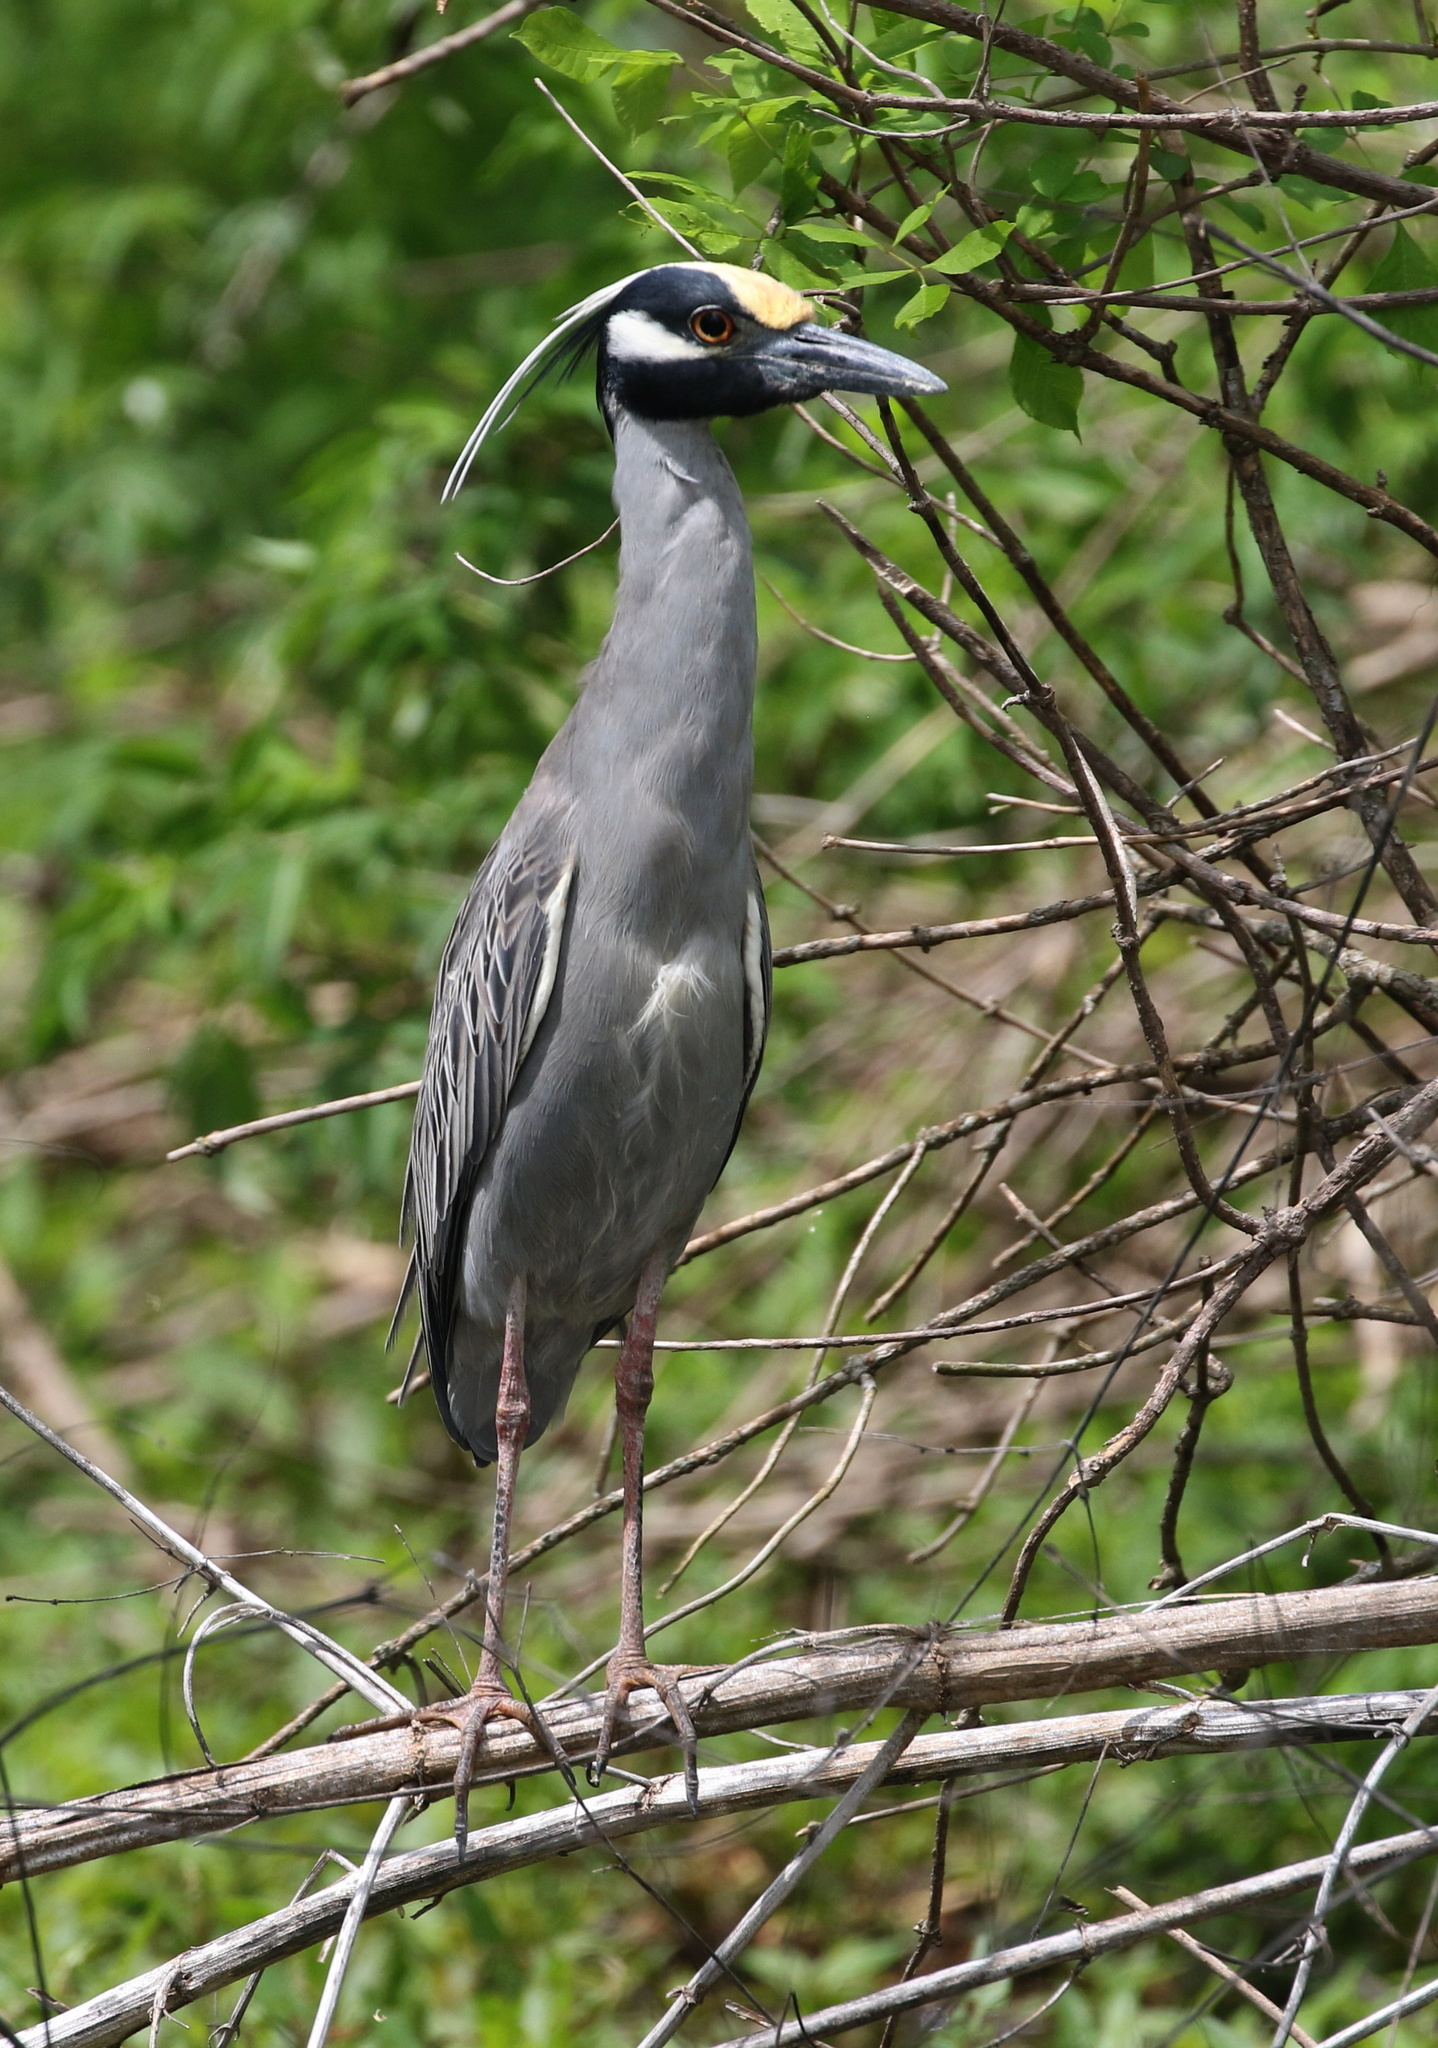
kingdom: Animalia
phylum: Chordata
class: Aves
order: Pelecaniformes
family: Ardeidae
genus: Nyctanassa
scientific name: Nyctanassa violacea
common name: Yellow-crowned night heron
